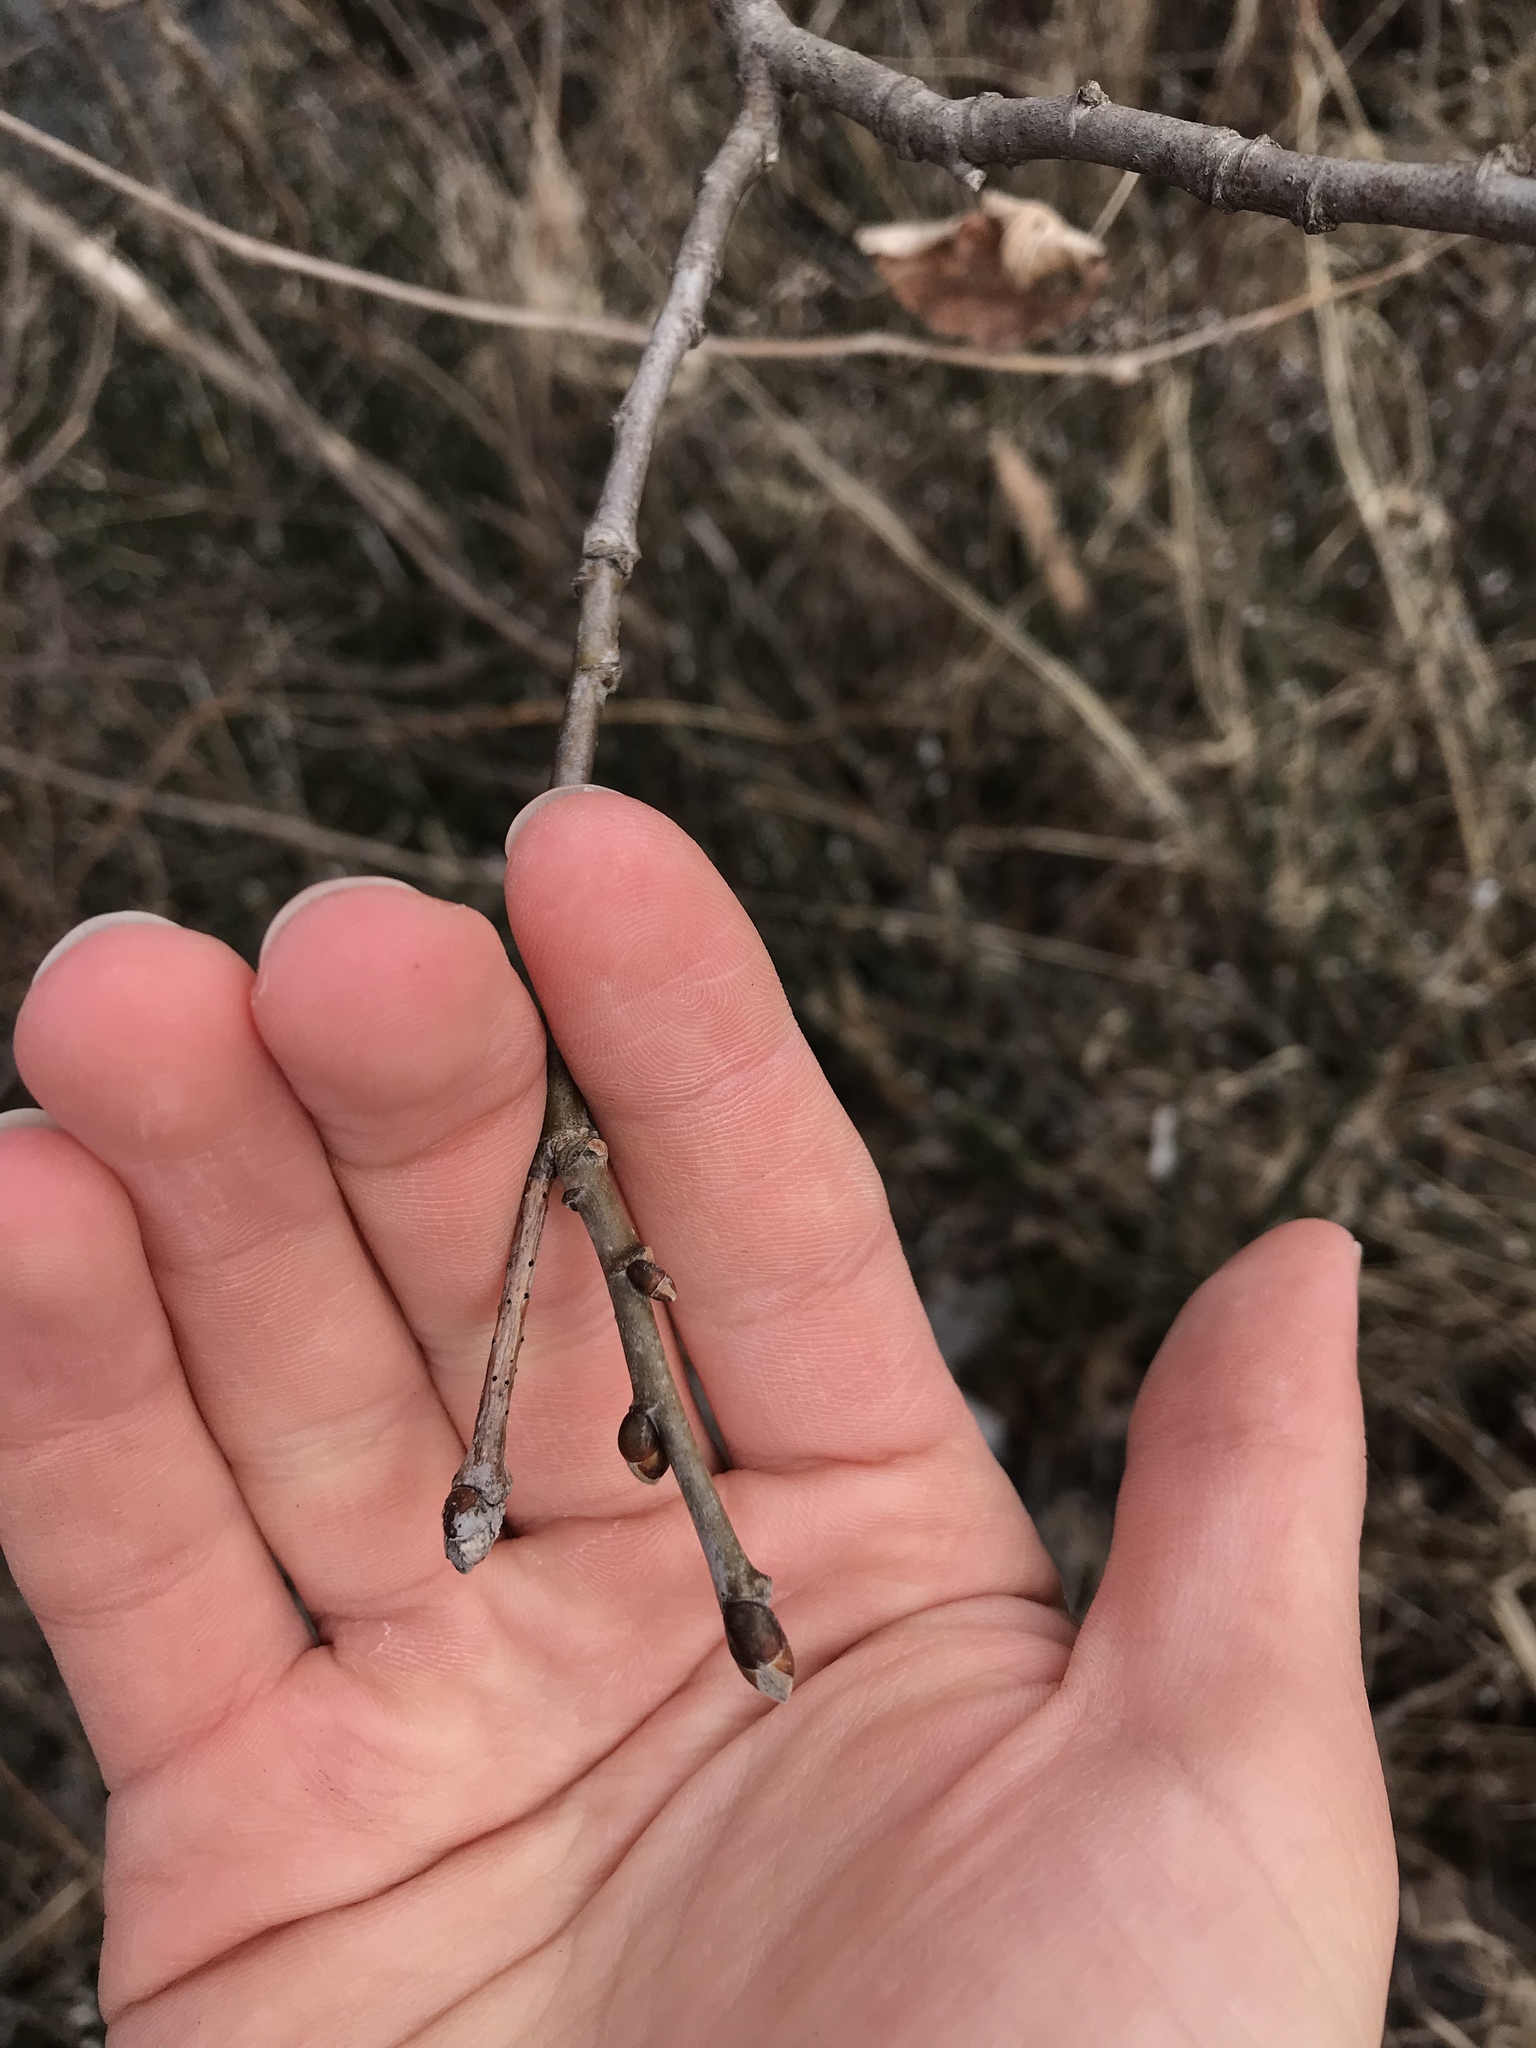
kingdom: Plantae
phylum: Tracheophyta
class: Magnoliopsida
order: Malvales
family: Malvaceae
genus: Tilia
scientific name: Tilia americana
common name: Basswood
